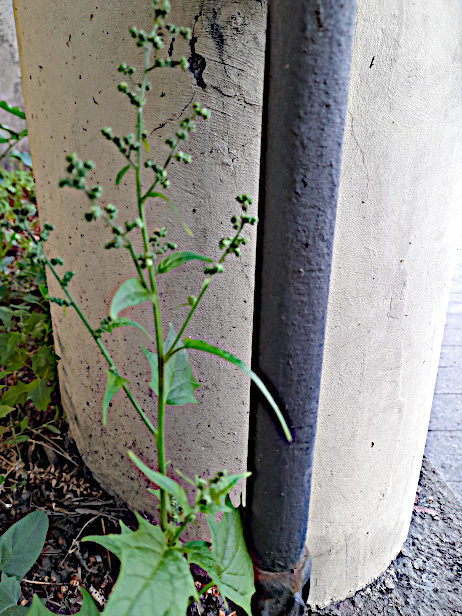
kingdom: Plantae
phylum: Tracheophyta
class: Magnoliopsida
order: Caryophyllales
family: Amaranthaceae
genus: Chenopodiastrum
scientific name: Chenopodiastrum hybridum
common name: Mapleleaf goosefoot
